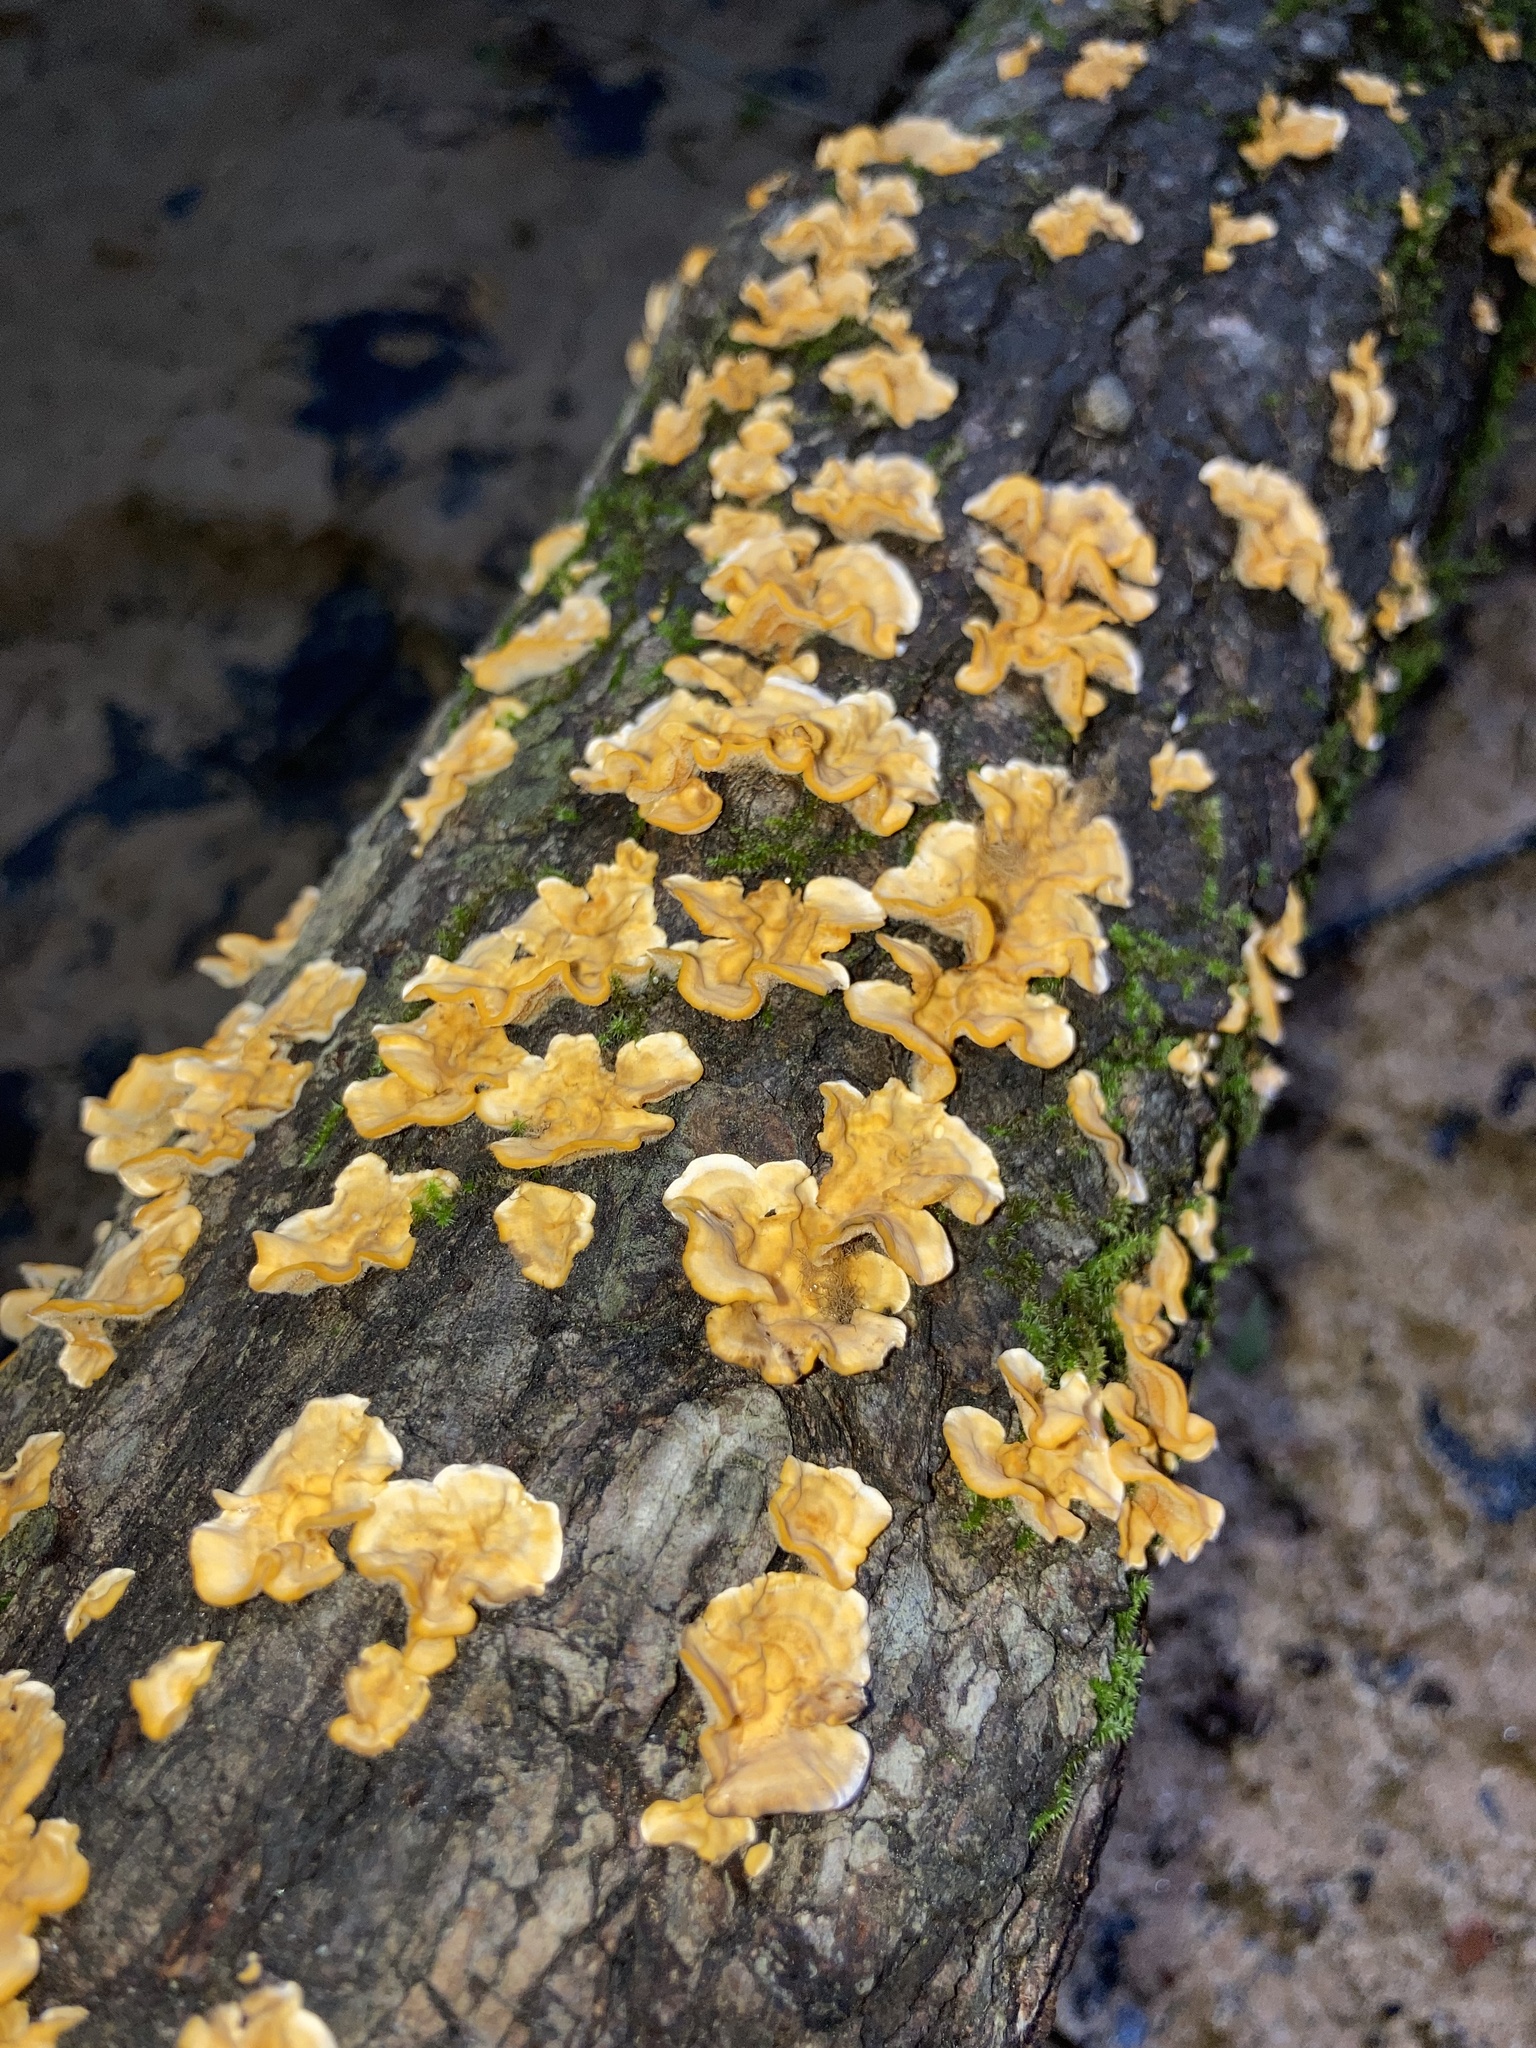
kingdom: Fungi
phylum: Basidiomycota
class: Agaricomycetes
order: Russulales
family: Stereaceae
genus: Stereum
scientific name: Stereum complicatum
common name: Crowded parchment
